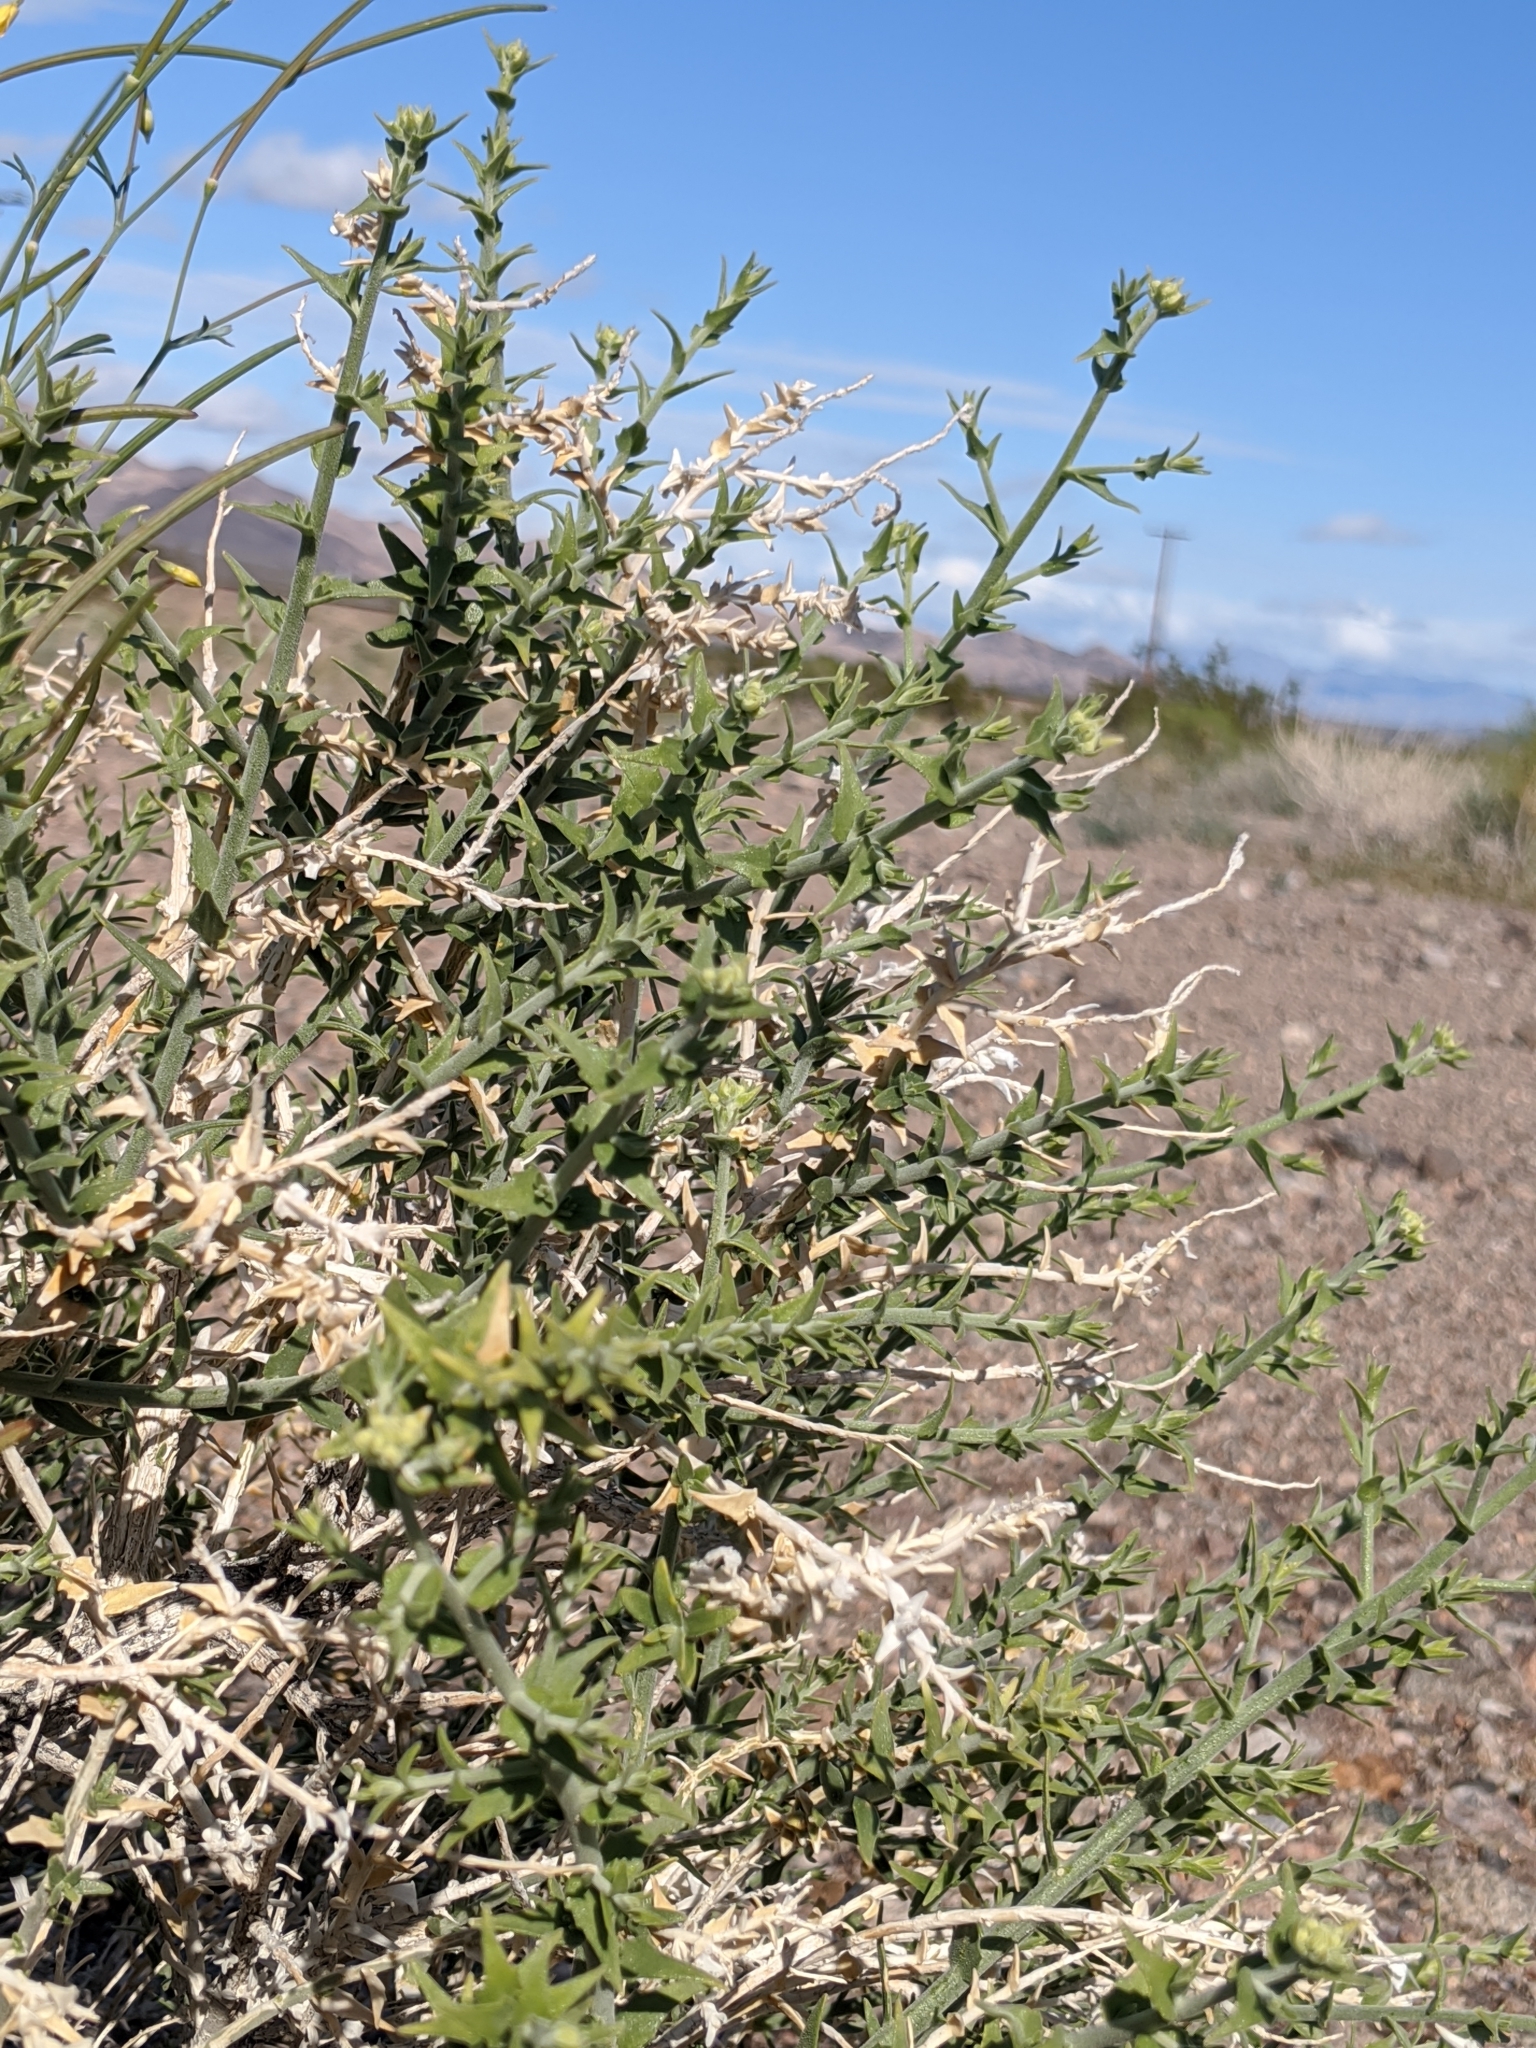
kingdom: Plantae
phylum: Tracheophyta
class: Magnoliopsida
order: Cornales
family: Loasaceae
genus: Petalonyx
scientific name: Petalonyx thurberi
